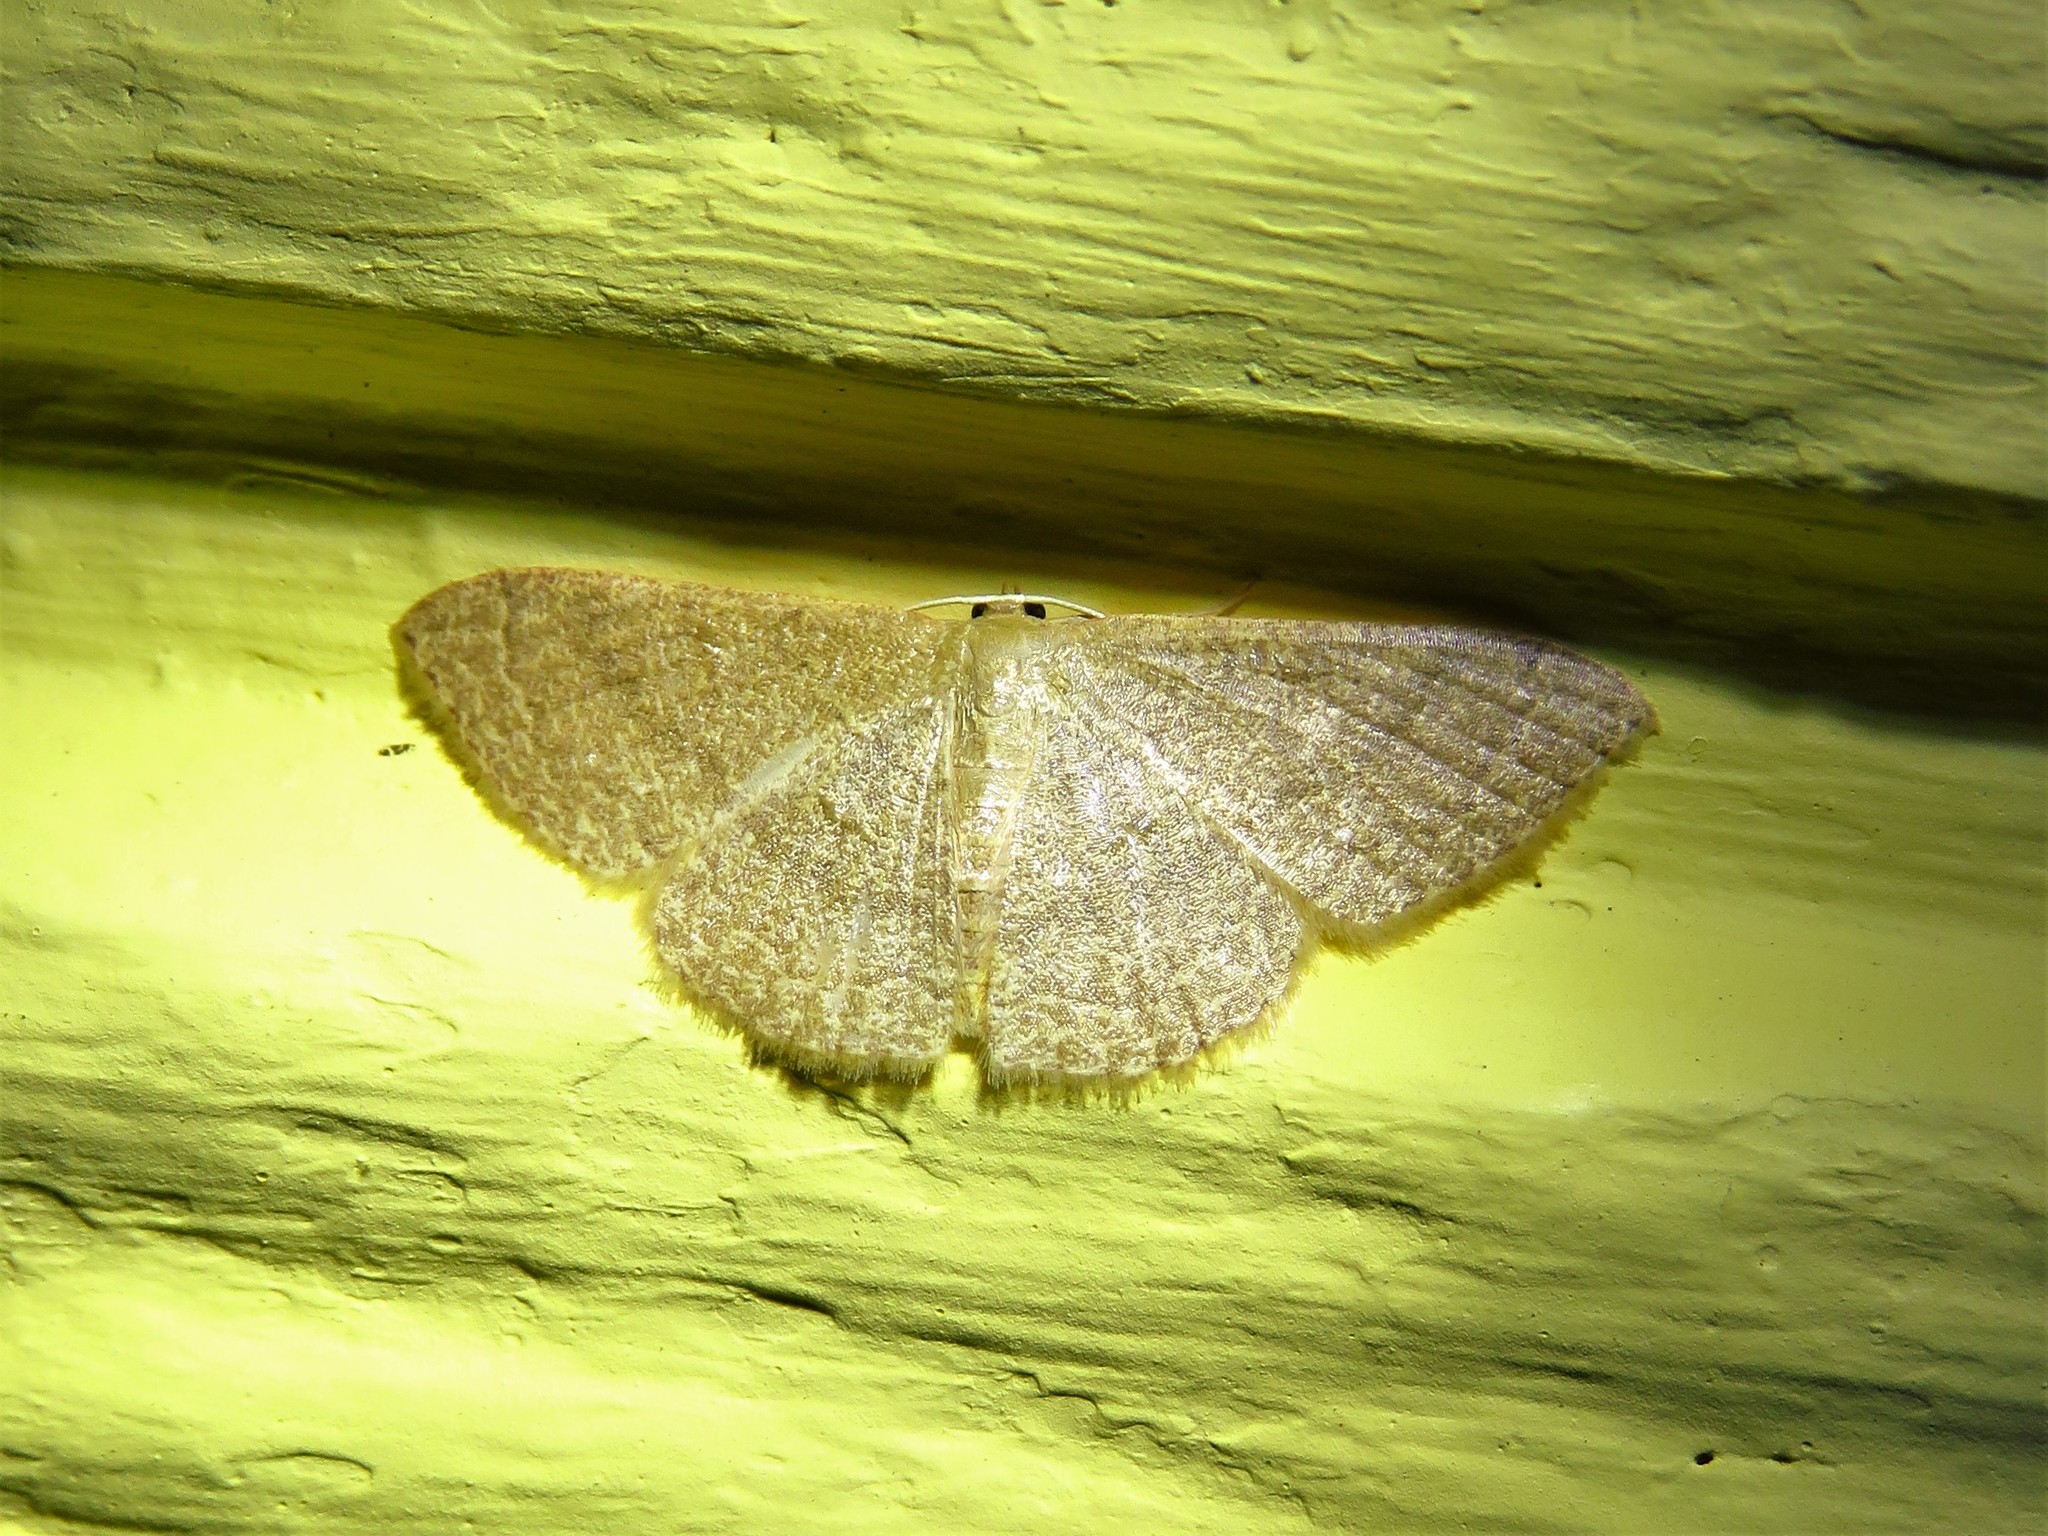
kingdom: Animalia
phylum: Arthropoda
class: Insecta
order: Lepidoptera
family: Geometridae
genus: Pleuroprucha
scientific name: Pleuroprucha insulsaria
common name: Common tan wave
